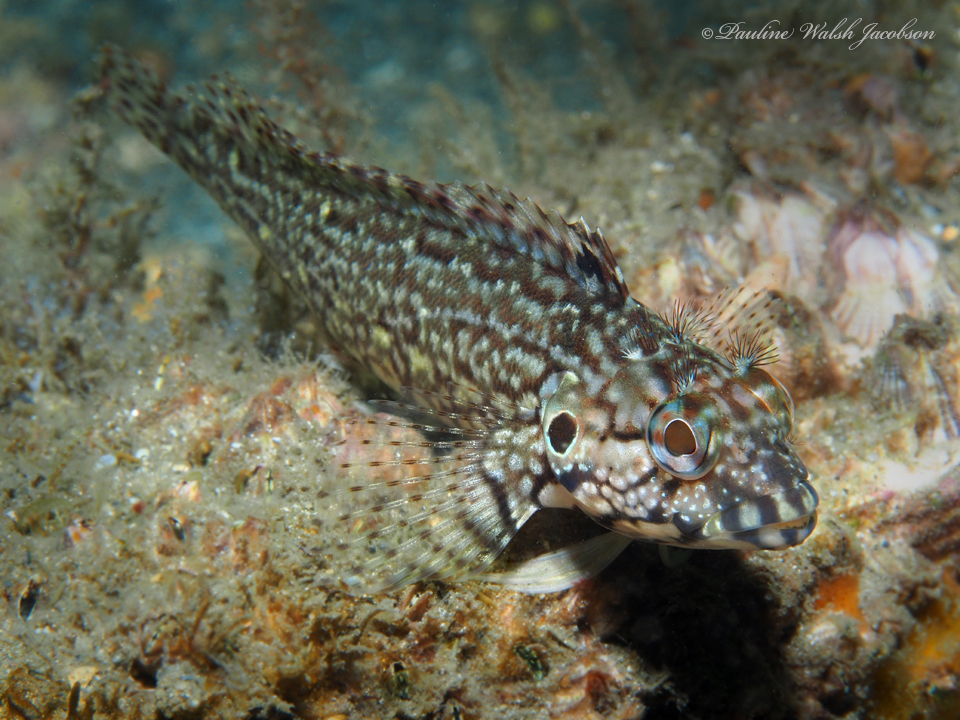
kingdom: Animalia
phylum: Chordata
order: Perciformes
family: Labrisomidae
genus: Labrisomus
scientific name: Labrisomus nuchipinnis
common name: Hairy blenny
